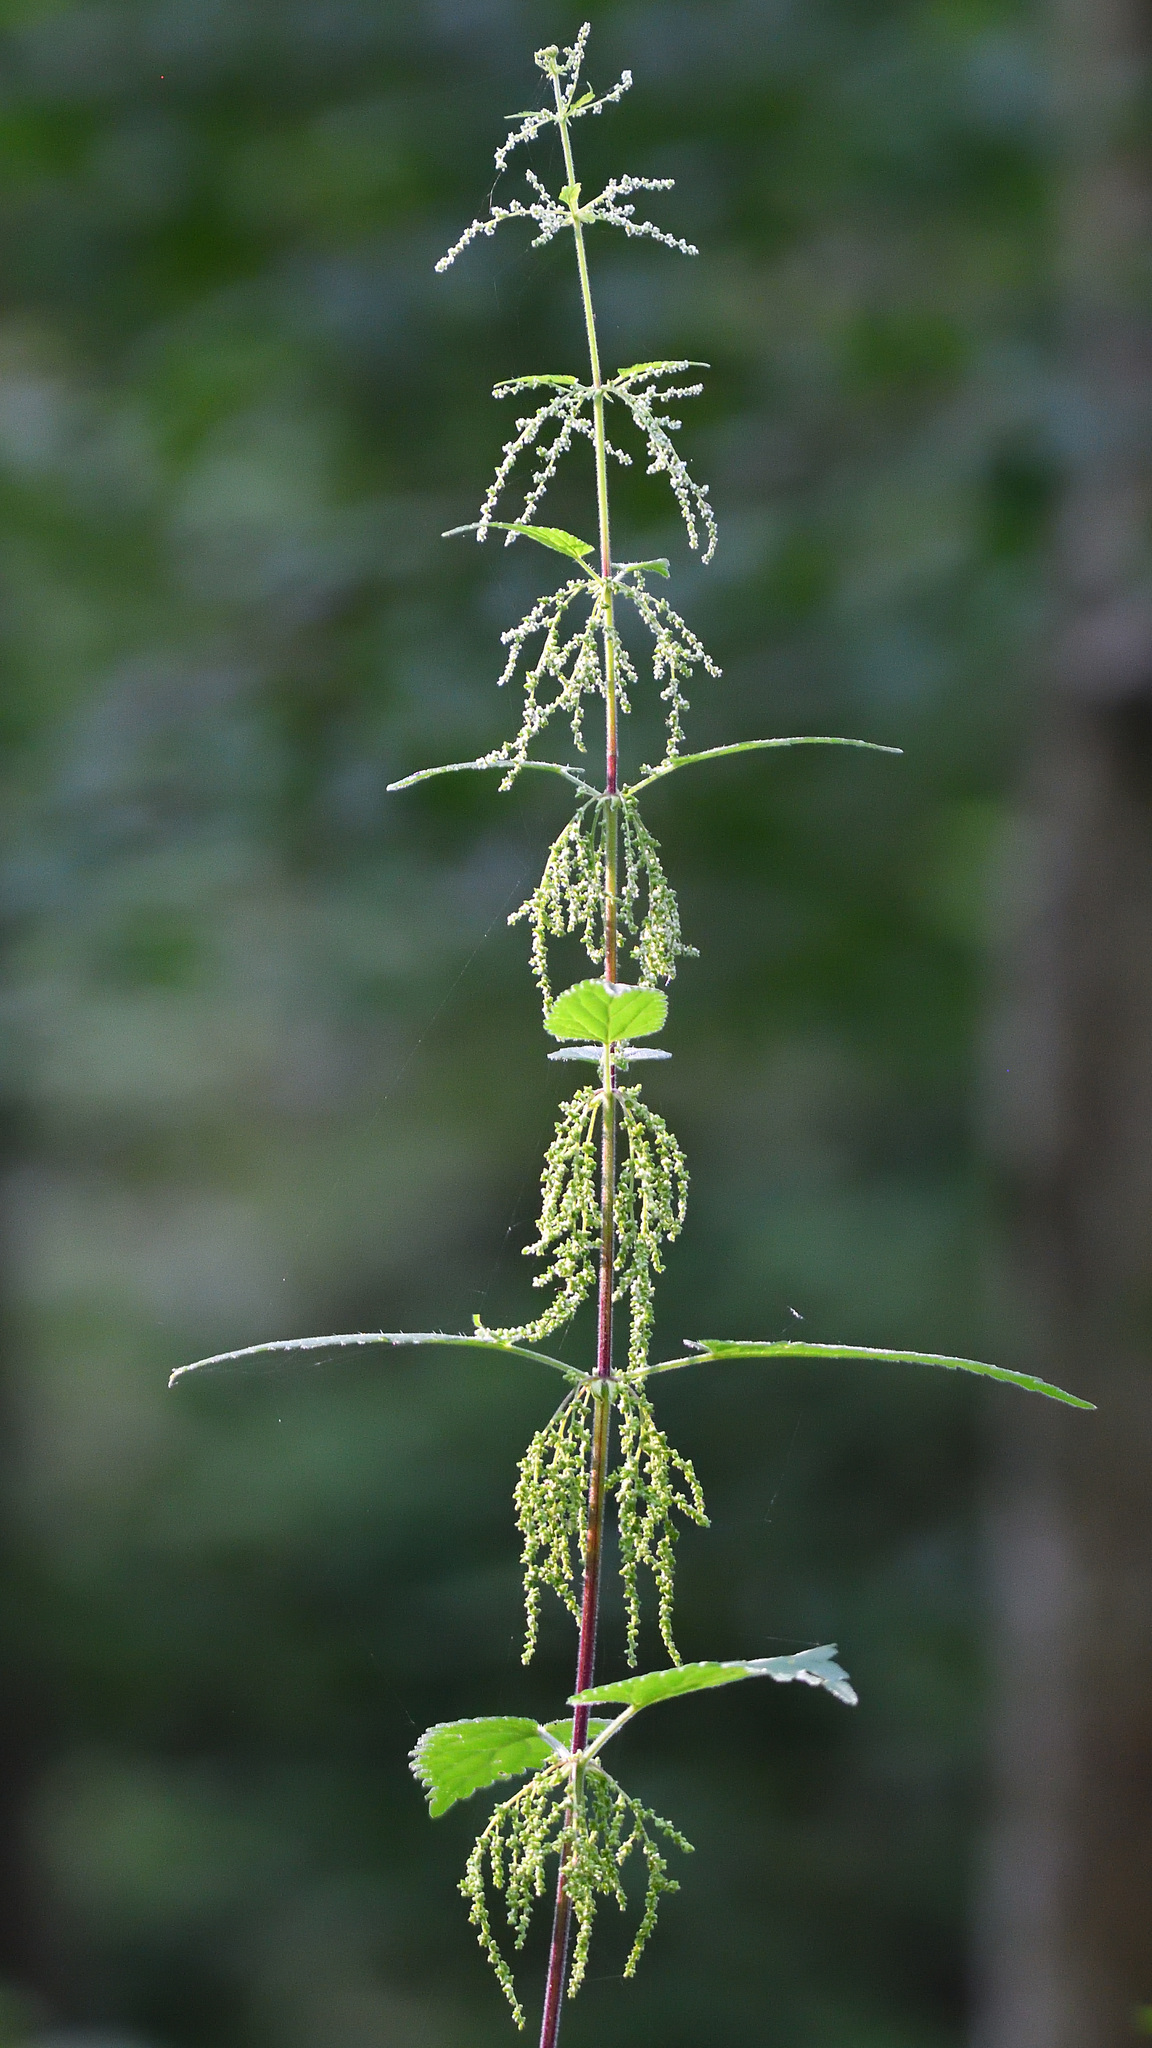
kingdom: Plantae
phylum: Tracheophyta
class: Magnoliopsida
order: Rosales
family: Urticaceae
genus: Urtica
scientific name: Urtica dioica
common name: Common nettle
